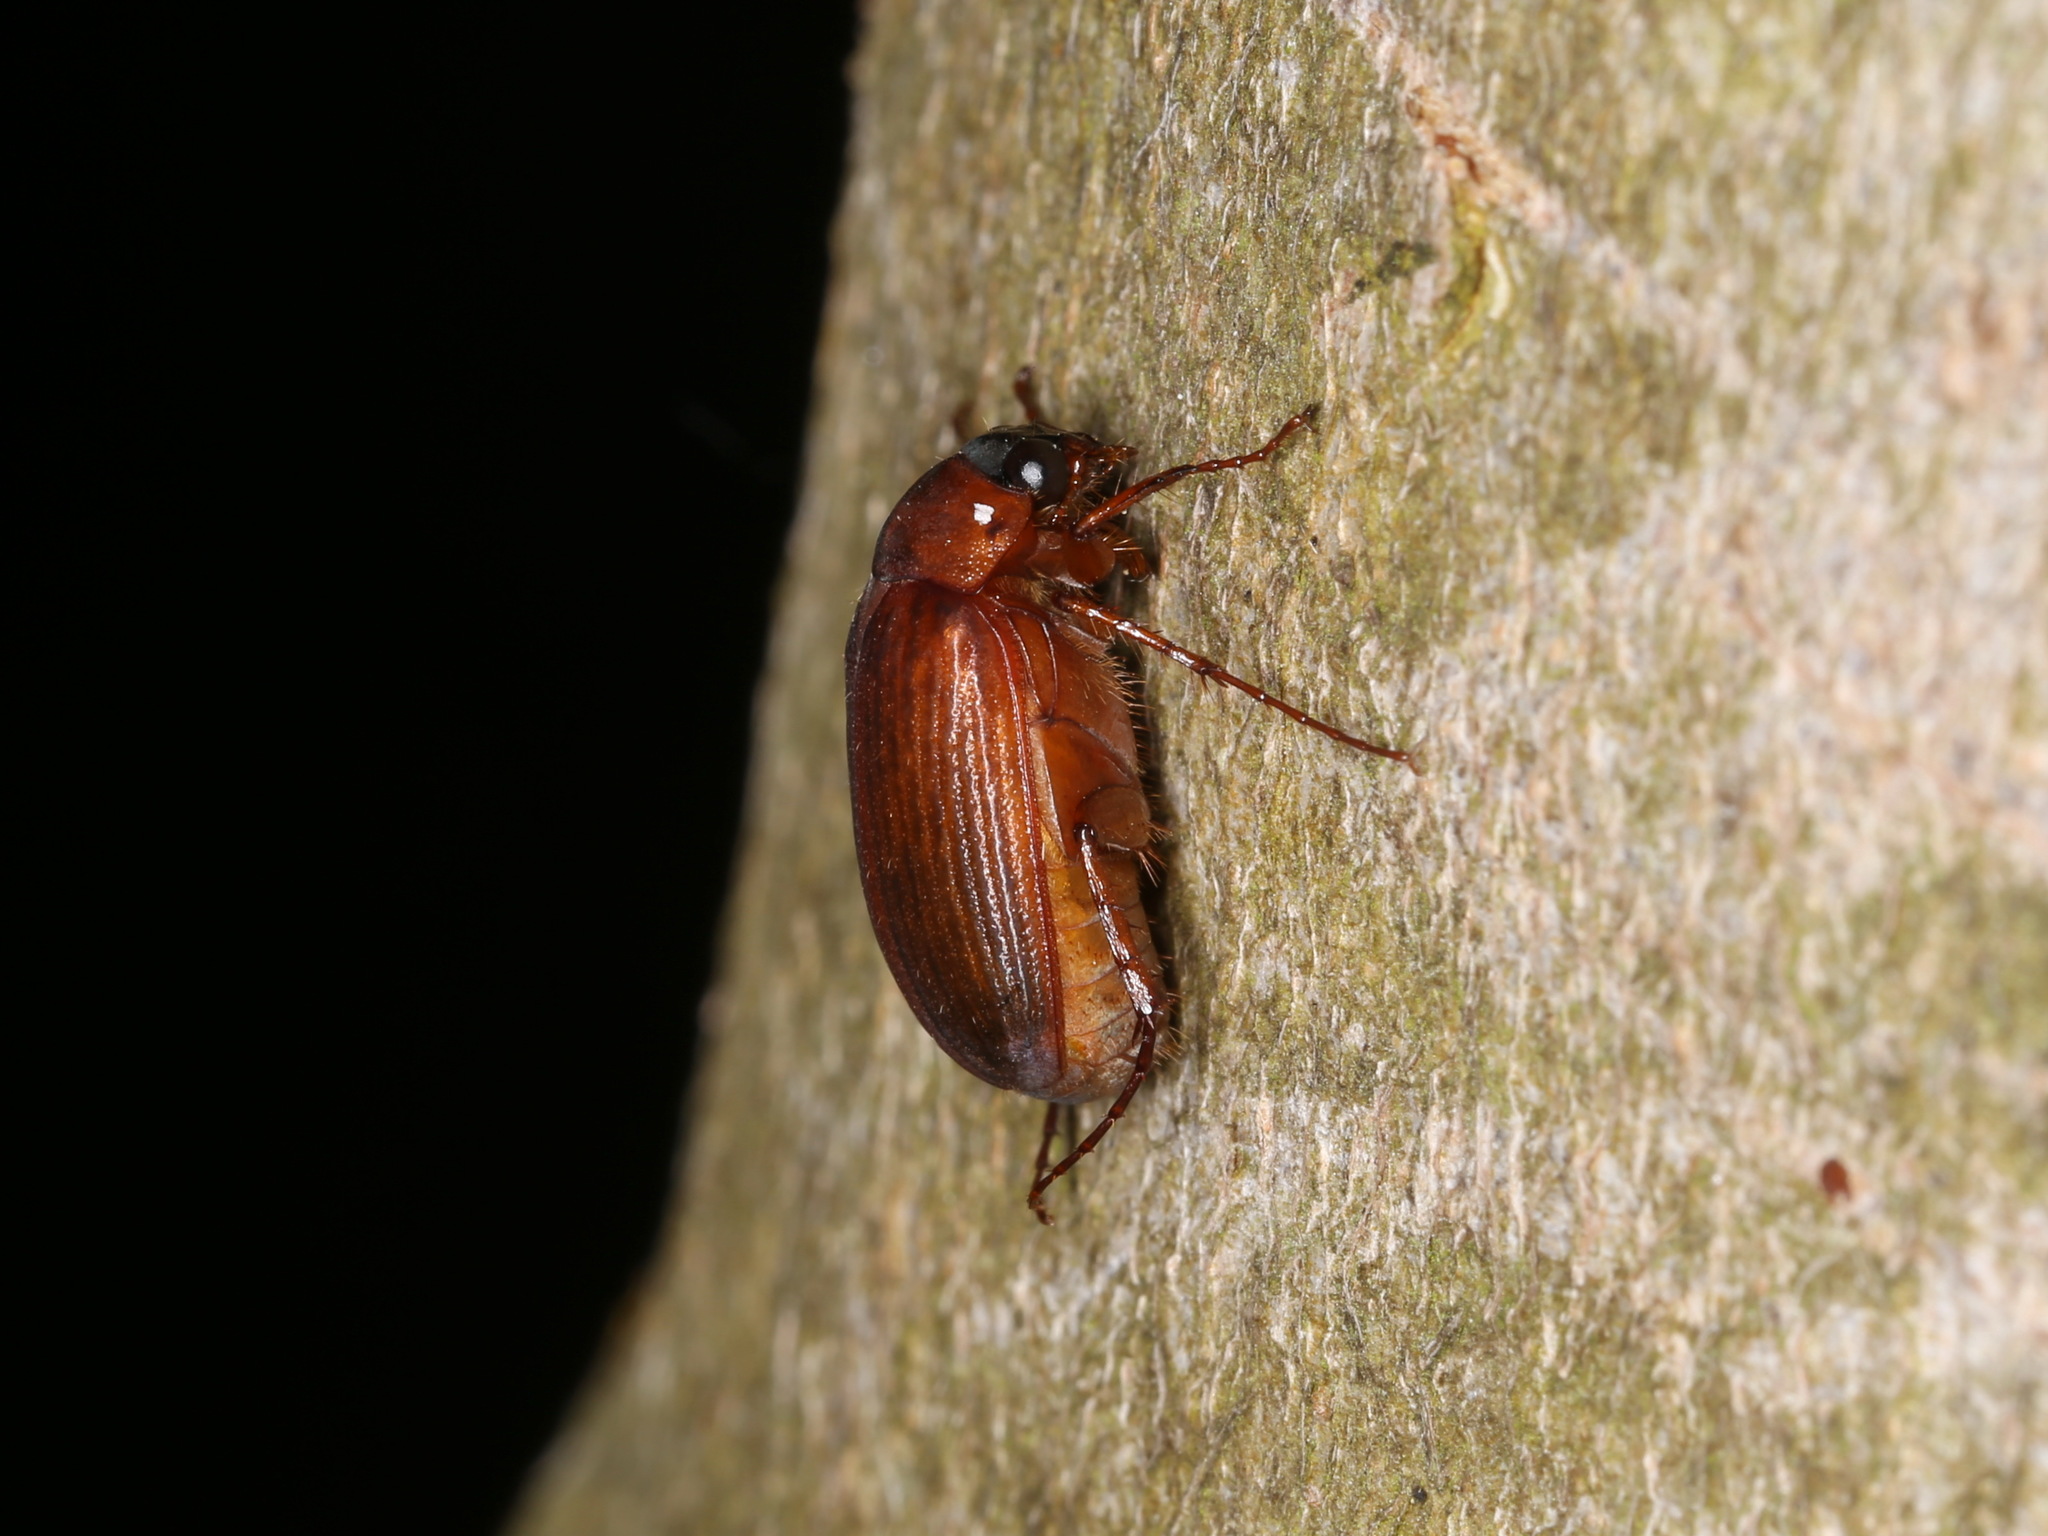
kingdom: Animalia
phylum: Arthropoda
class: Insecta
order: Coleoptera
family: Scarabaeidae
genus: Serica
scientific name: Serica brunnea
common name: Brown chafer
